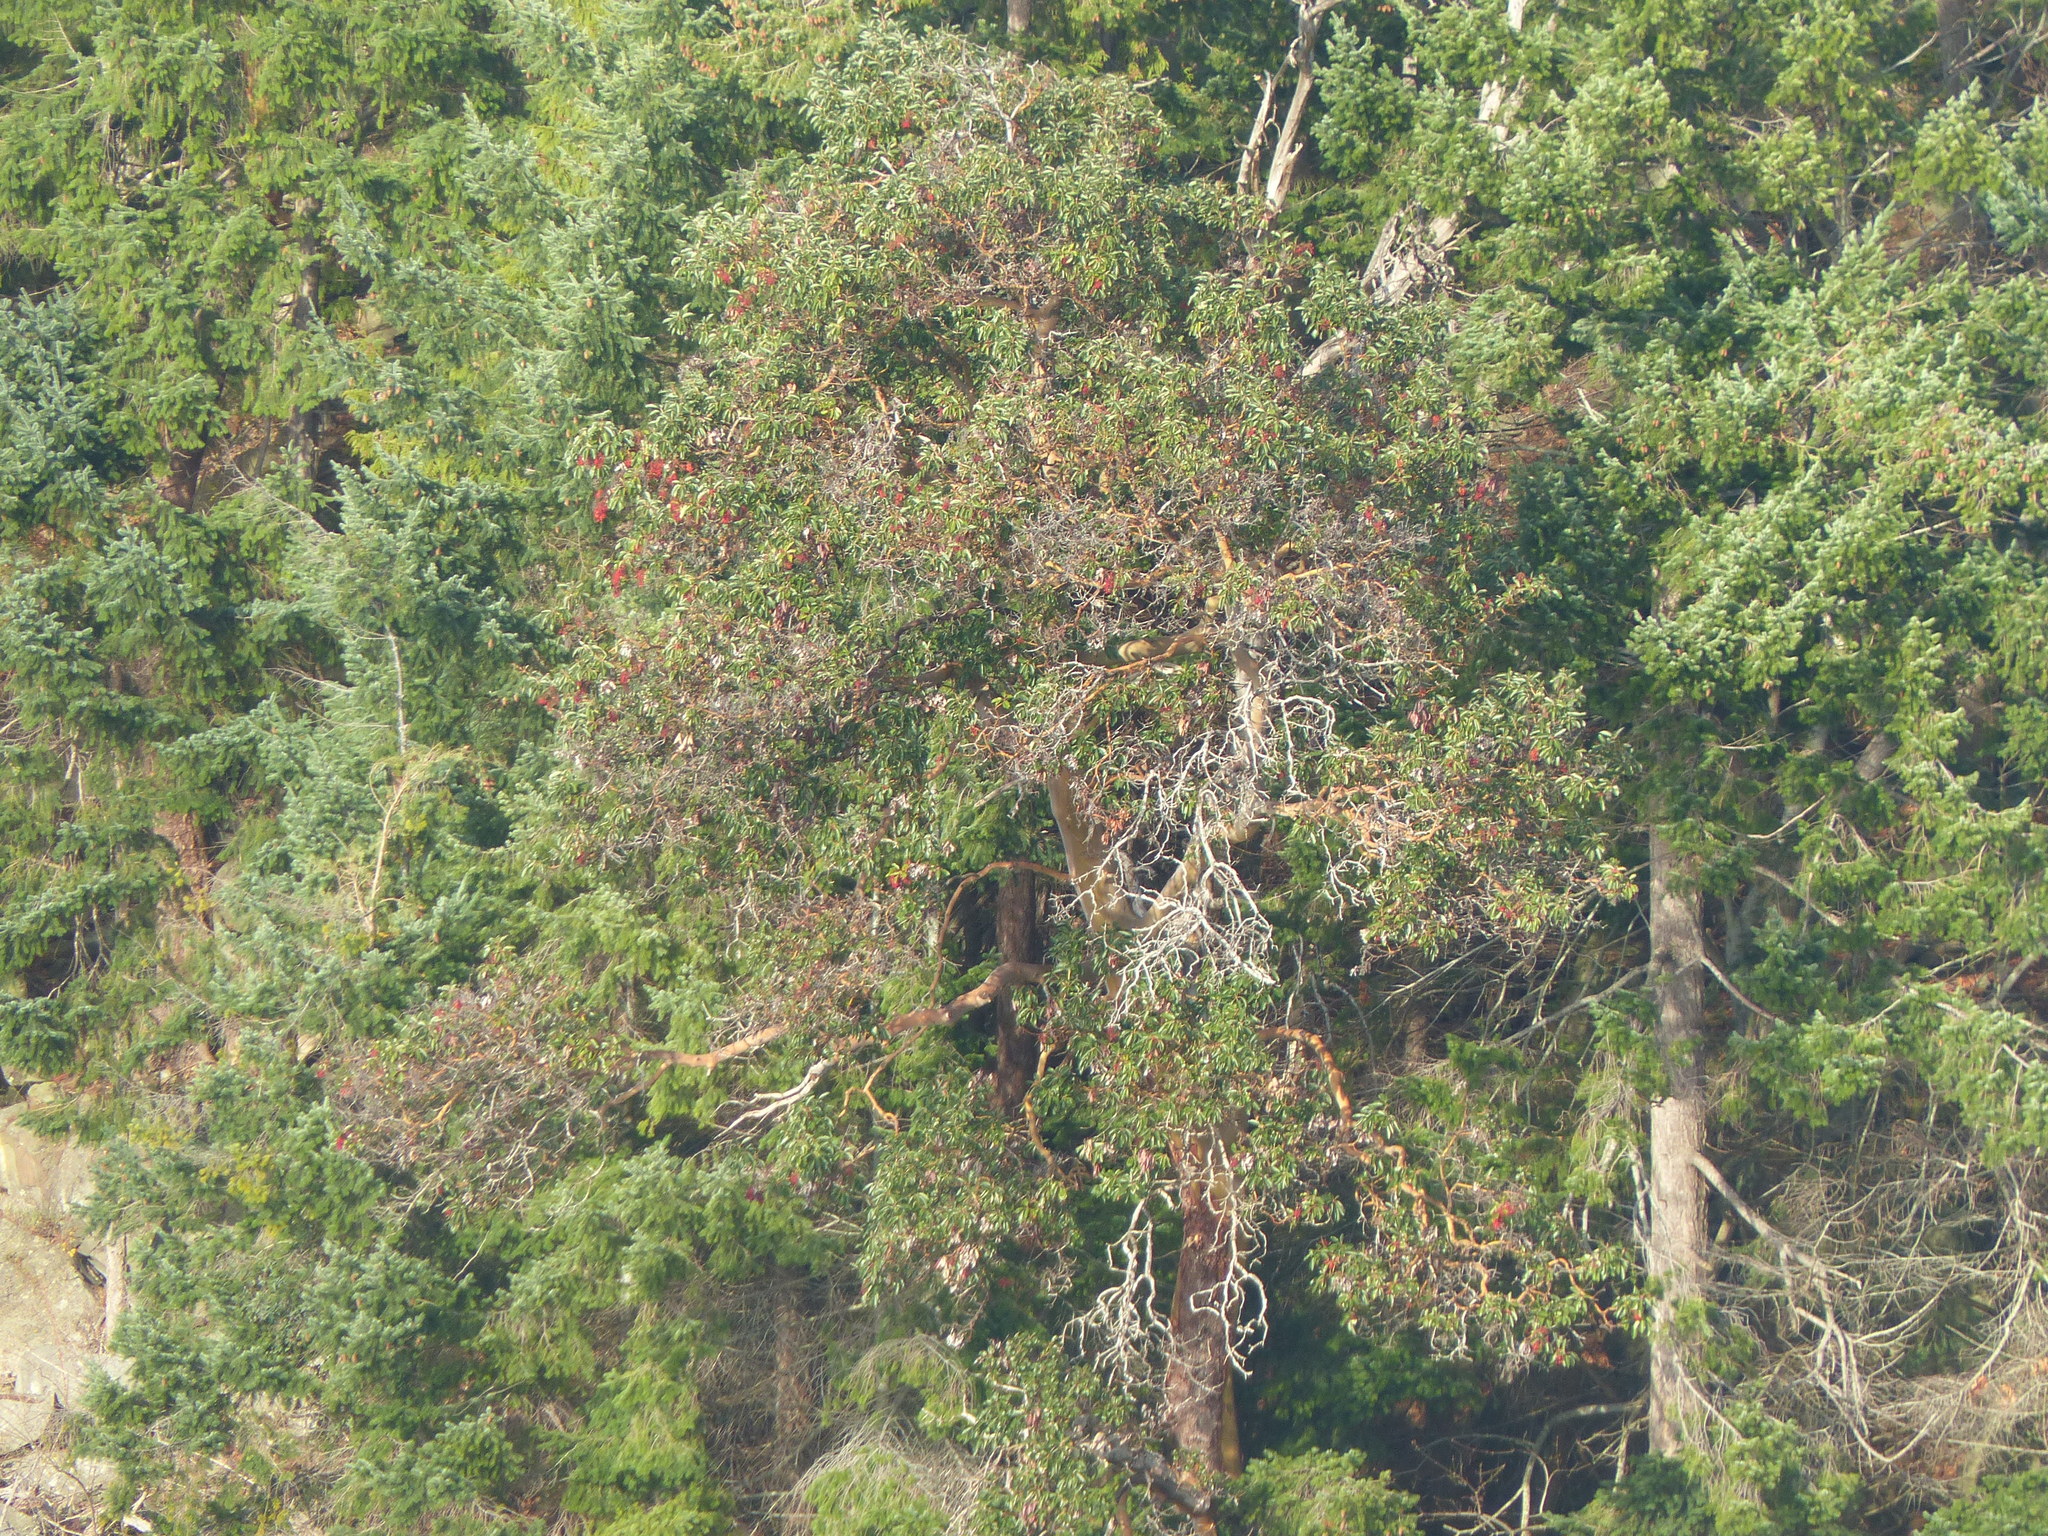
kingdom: Plantae
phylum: Tracheophyta
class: Magnoliopsida
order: Ericales
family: Ericaceae
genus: Arbutus
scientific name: Arbutus menziesii
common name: Pacific madrone
